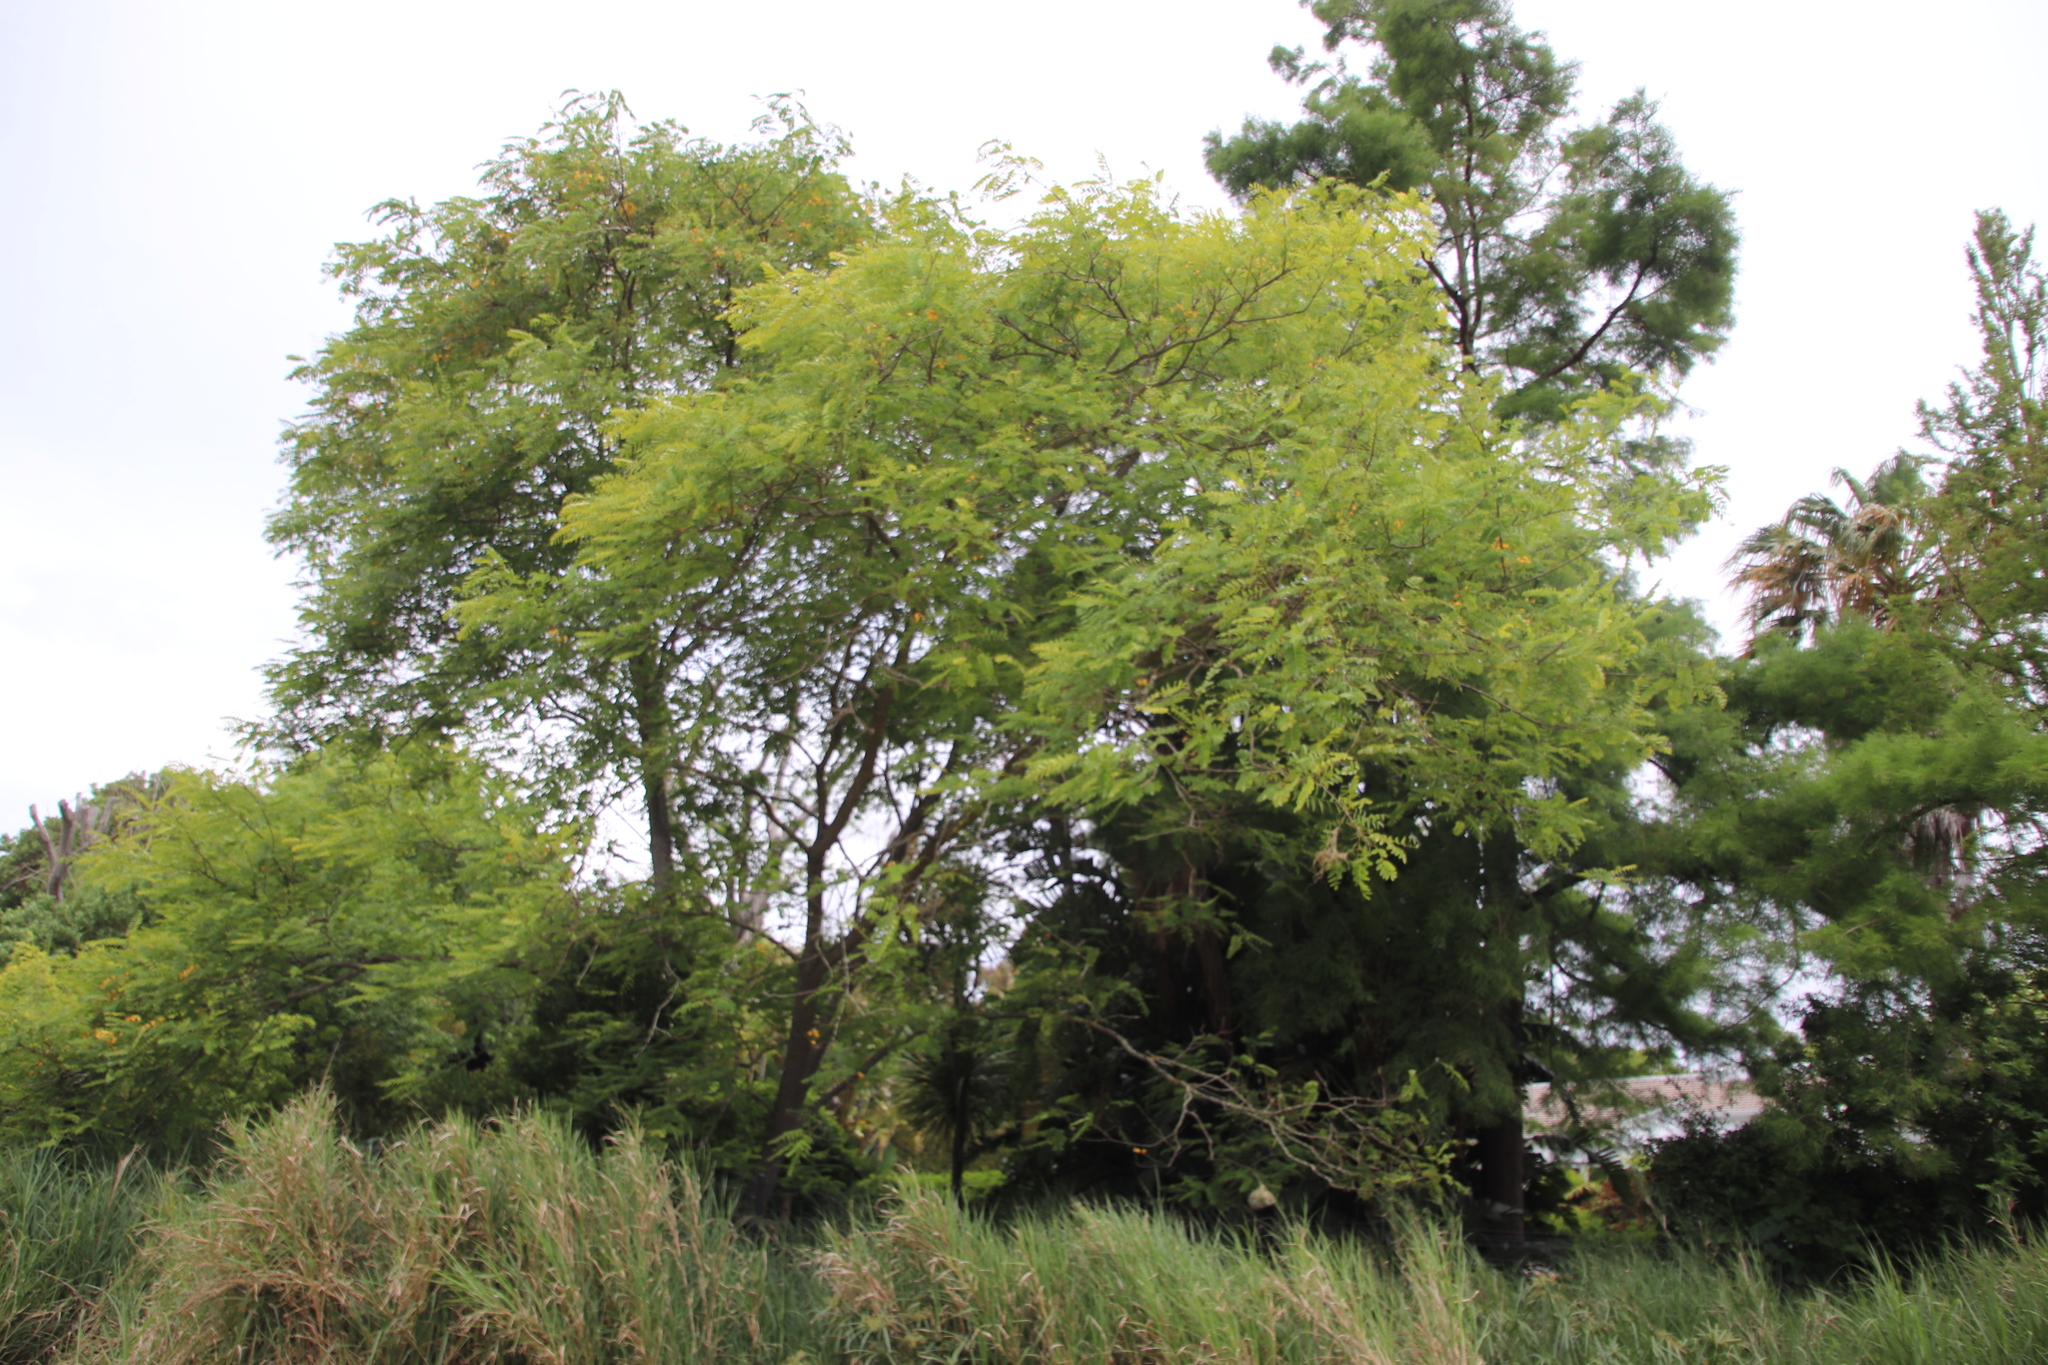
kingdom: Plantae
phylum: Tracheophyta
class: Magnoliopsida
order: Fabales
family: Fabaceae
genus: Tipuana
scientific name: Tipuana tipu
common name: Tiputree
